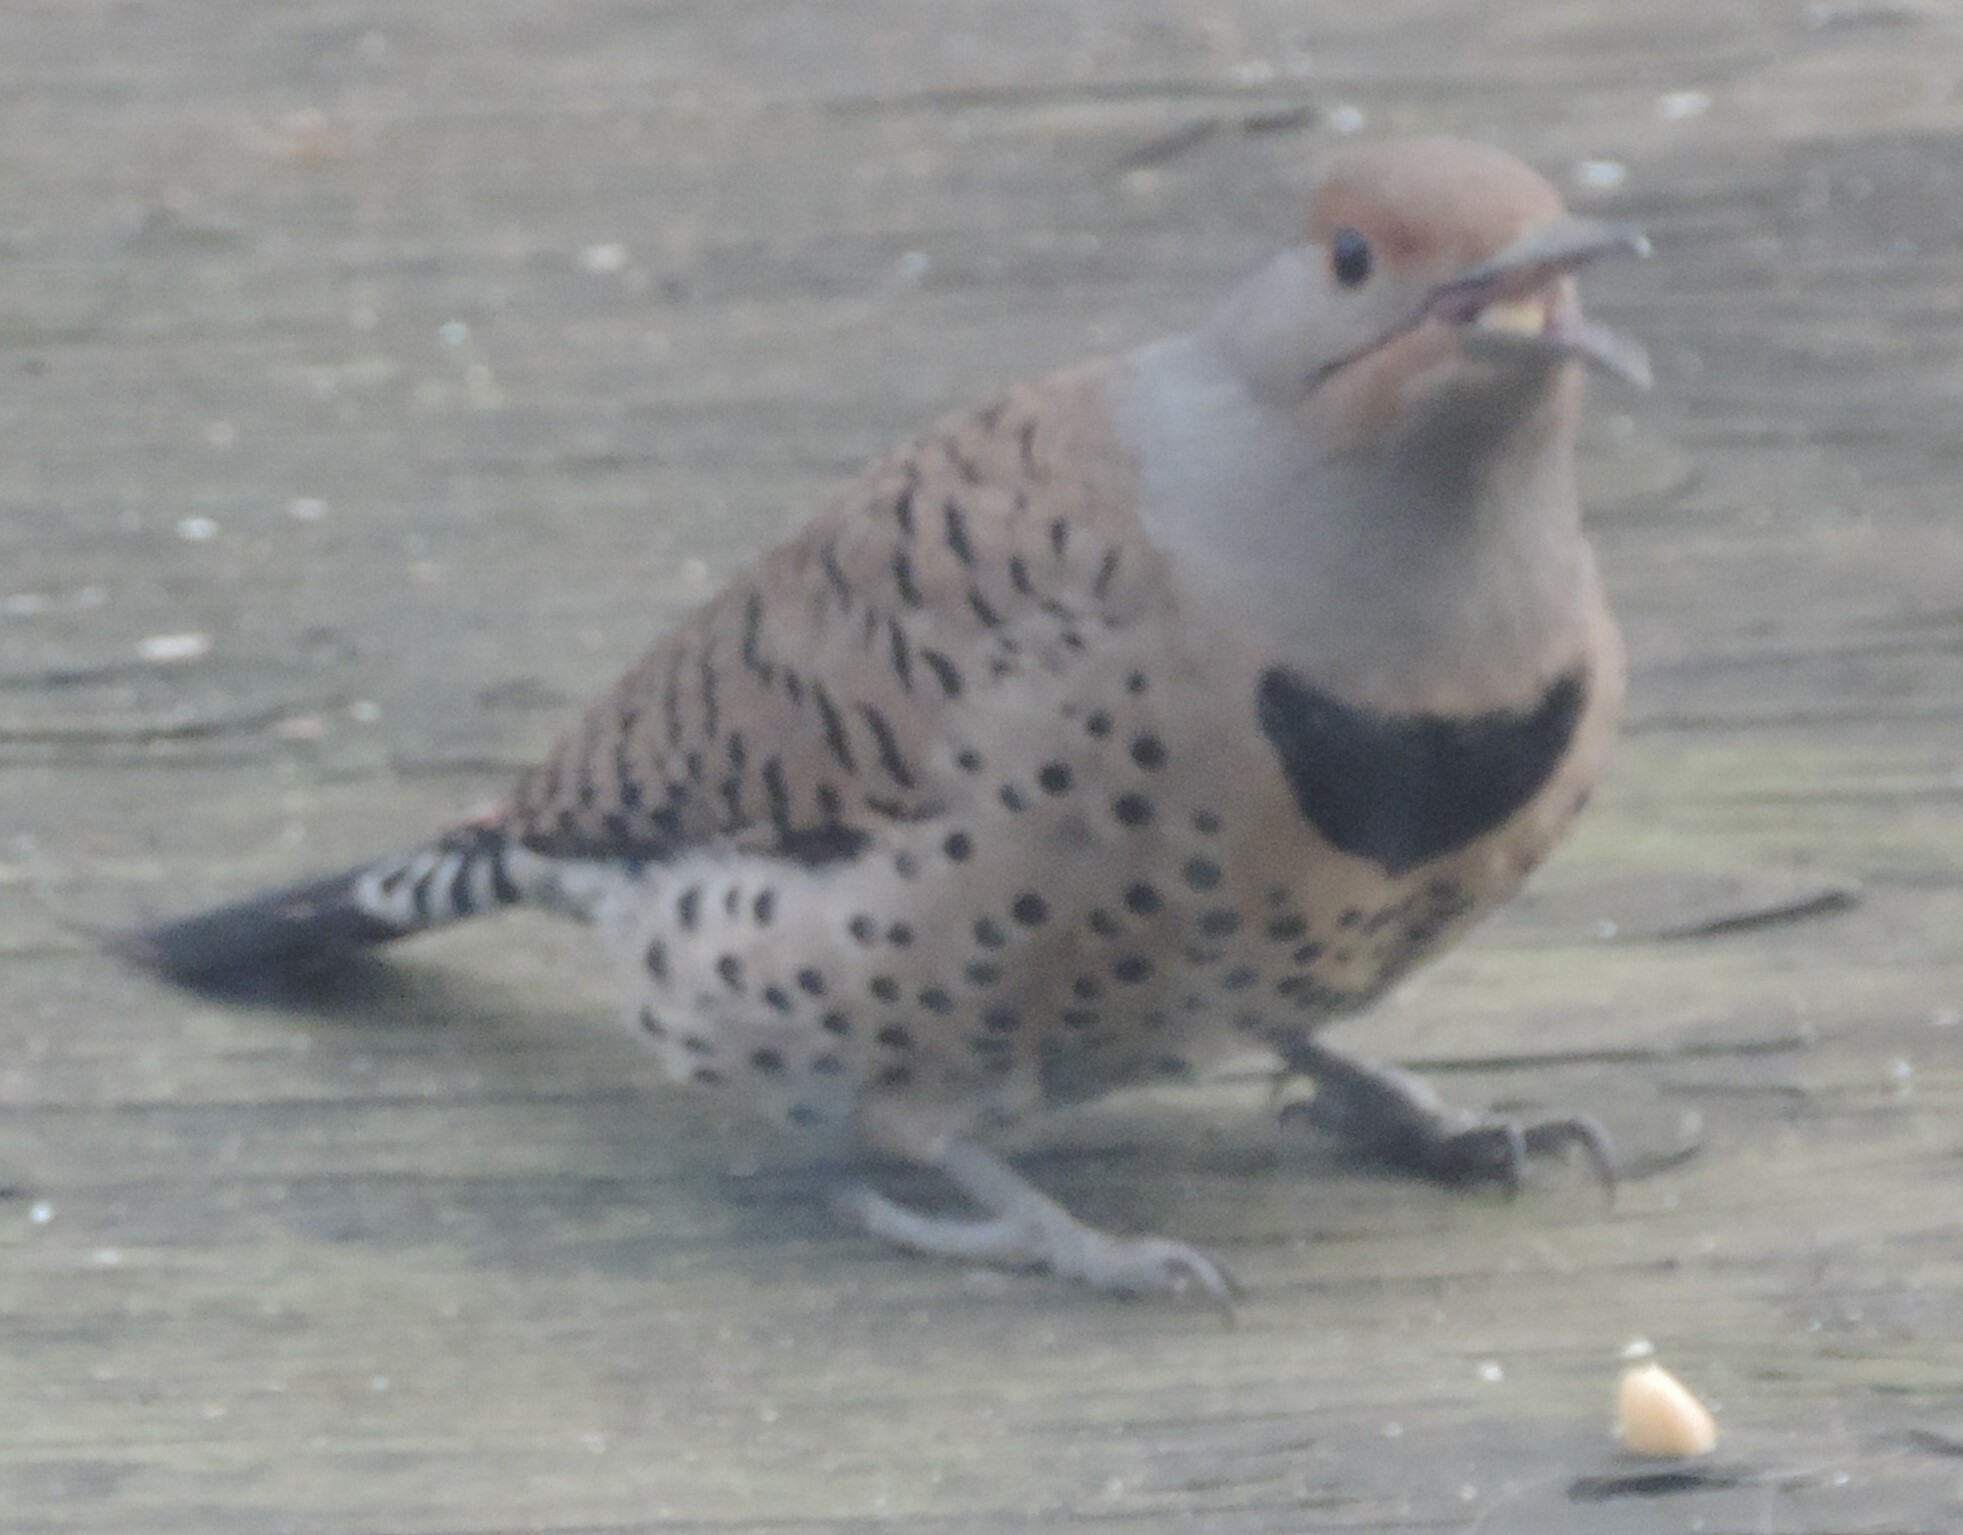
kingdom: Animalia
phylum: Chordata
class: Aves
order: Piciformes
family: Picidae
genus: Colaptes
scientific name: Colaptes auratus
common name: Northern flicker
